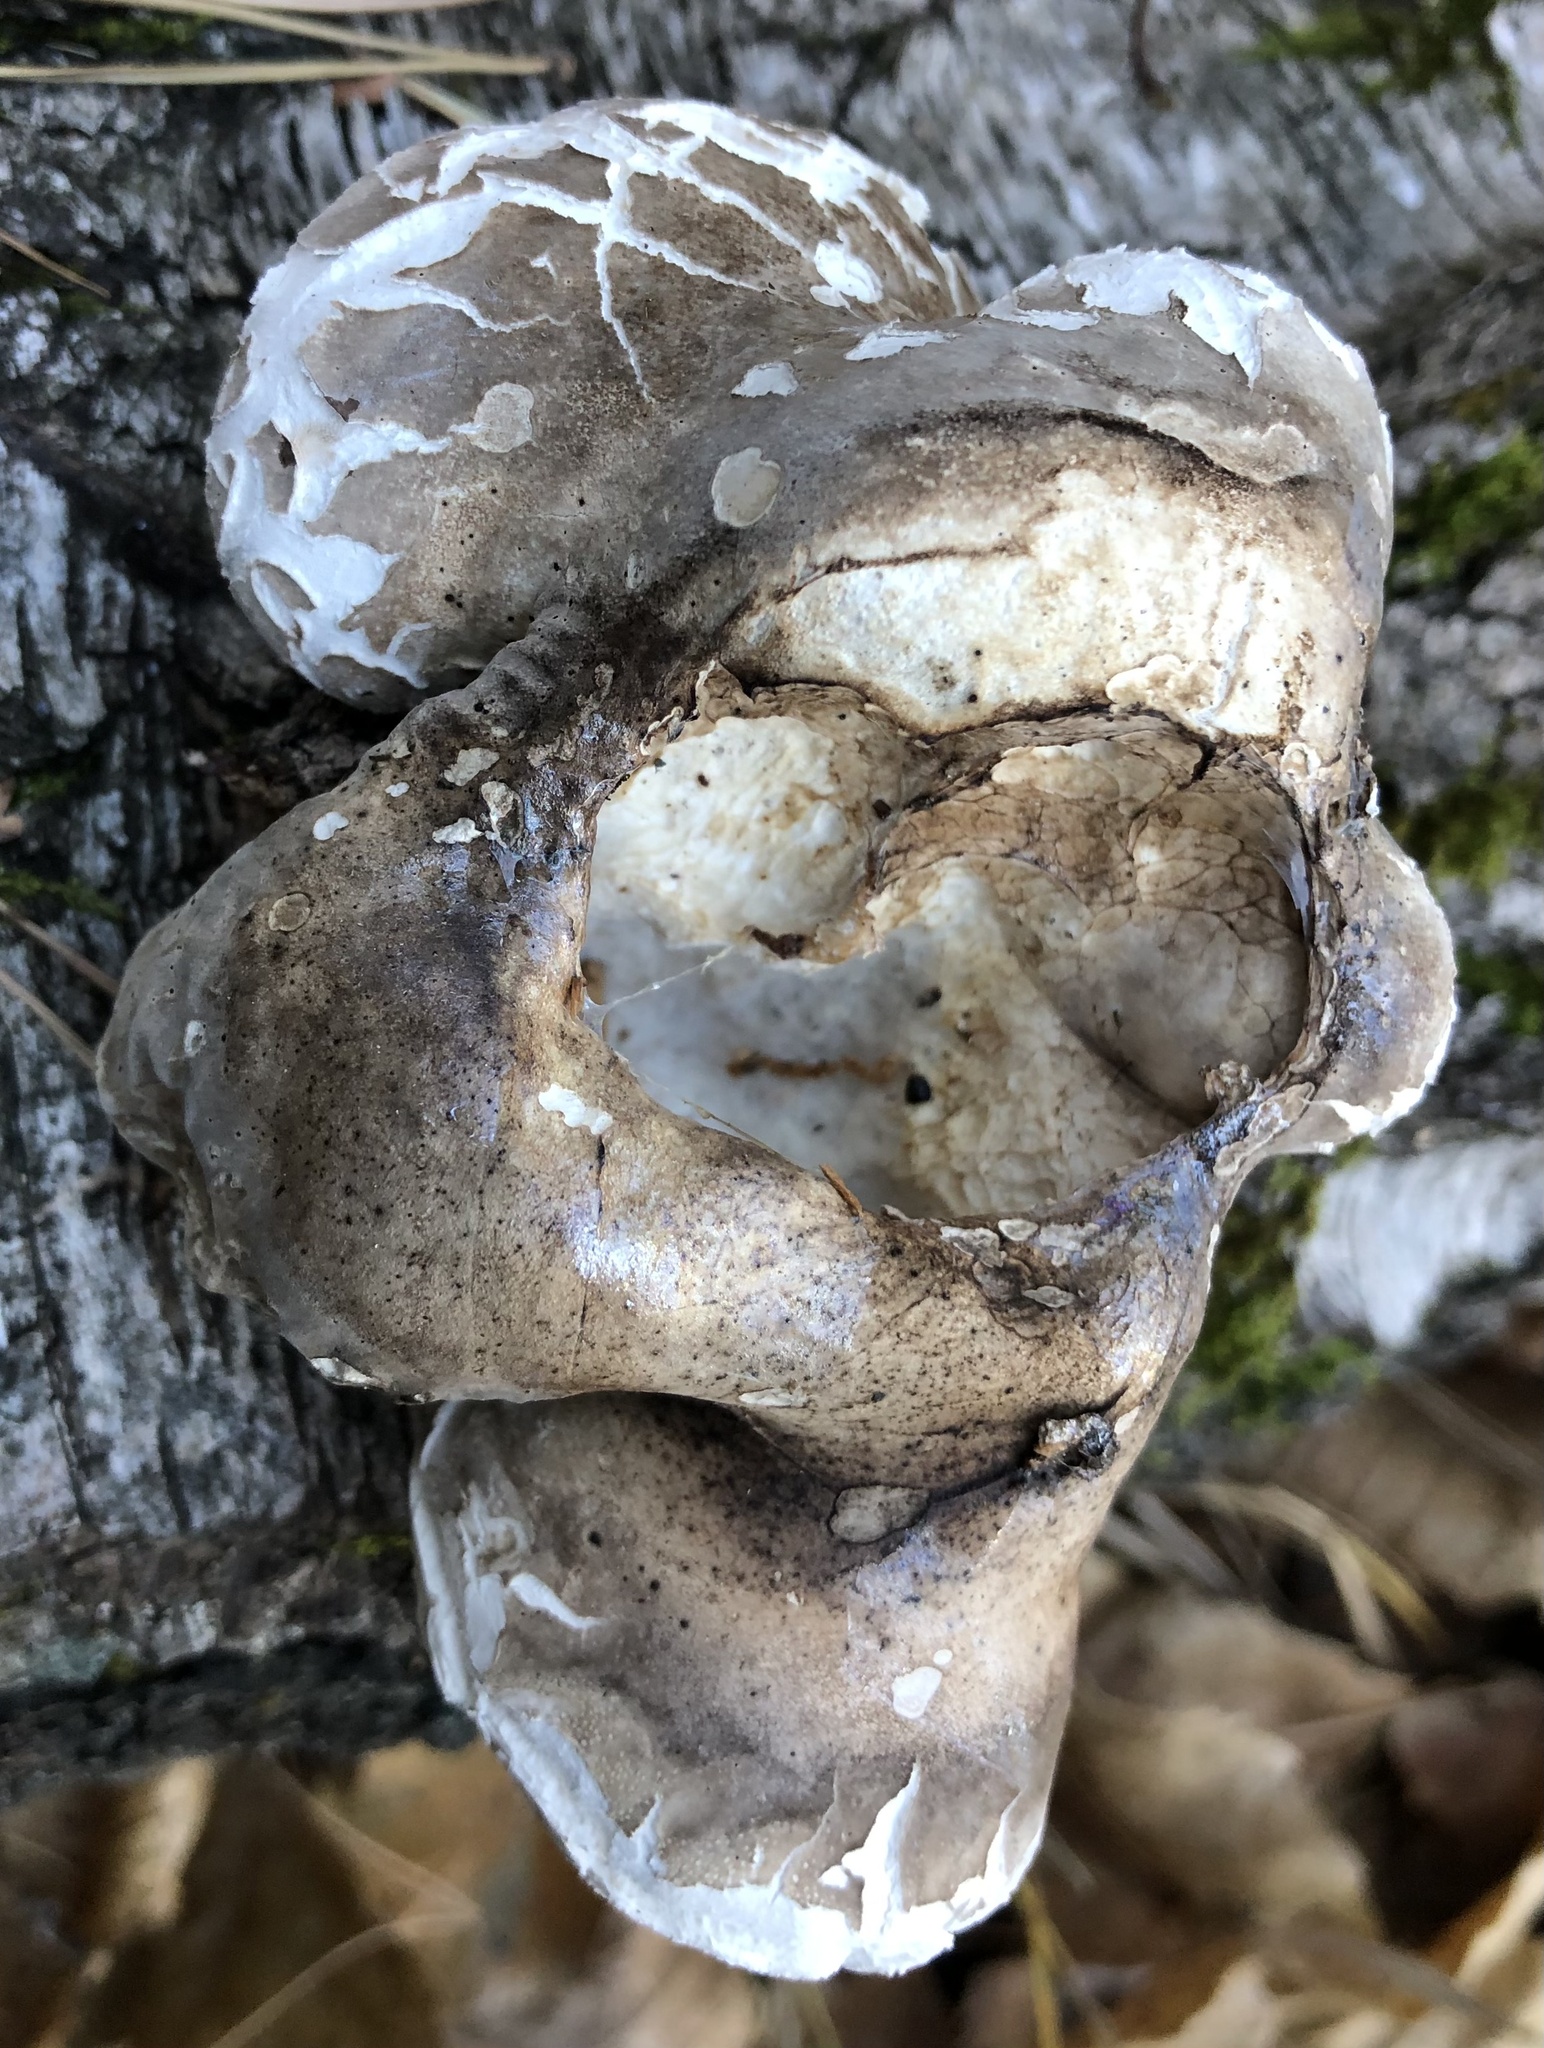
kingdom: Fungi
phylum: Basidiomycota
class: Agaricomycetes
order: Polyporales
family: Fomitopsidaceae
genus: Fomitopsis
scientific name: Fomitopsis betulina
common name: Birch polypore
